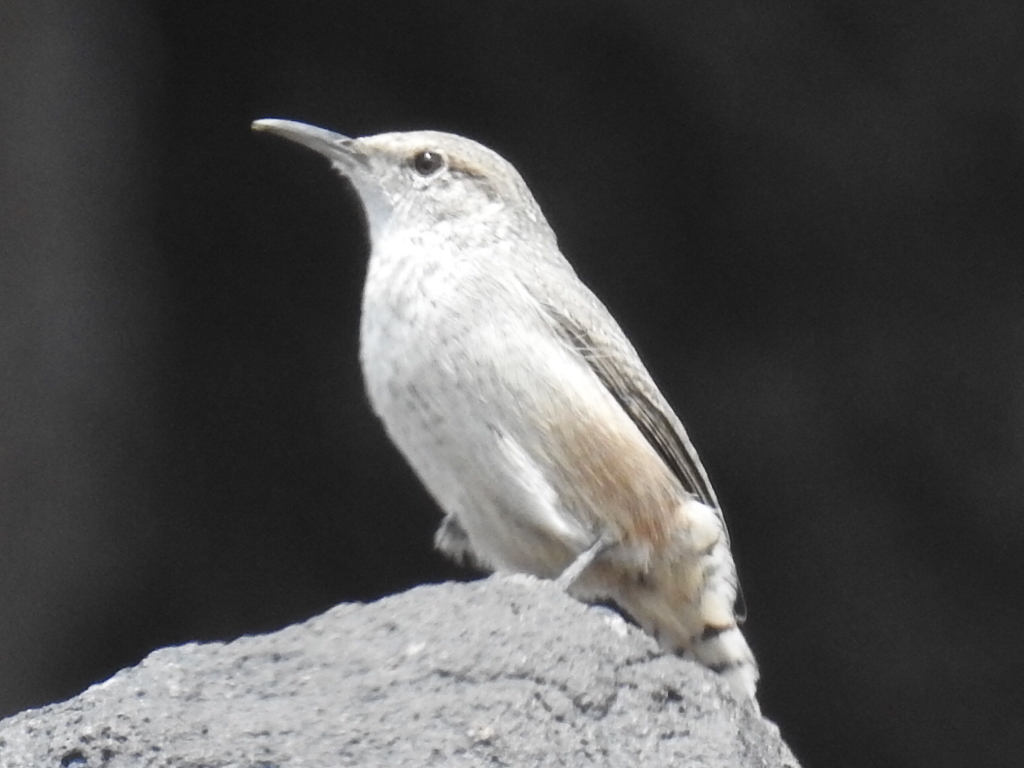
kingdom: Animalia
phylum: Chordata
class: Aves
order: Passeriformes
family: Troglodytidae
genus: Salpinctes
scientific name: Salpinctes obsoletus
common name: Rock wren
